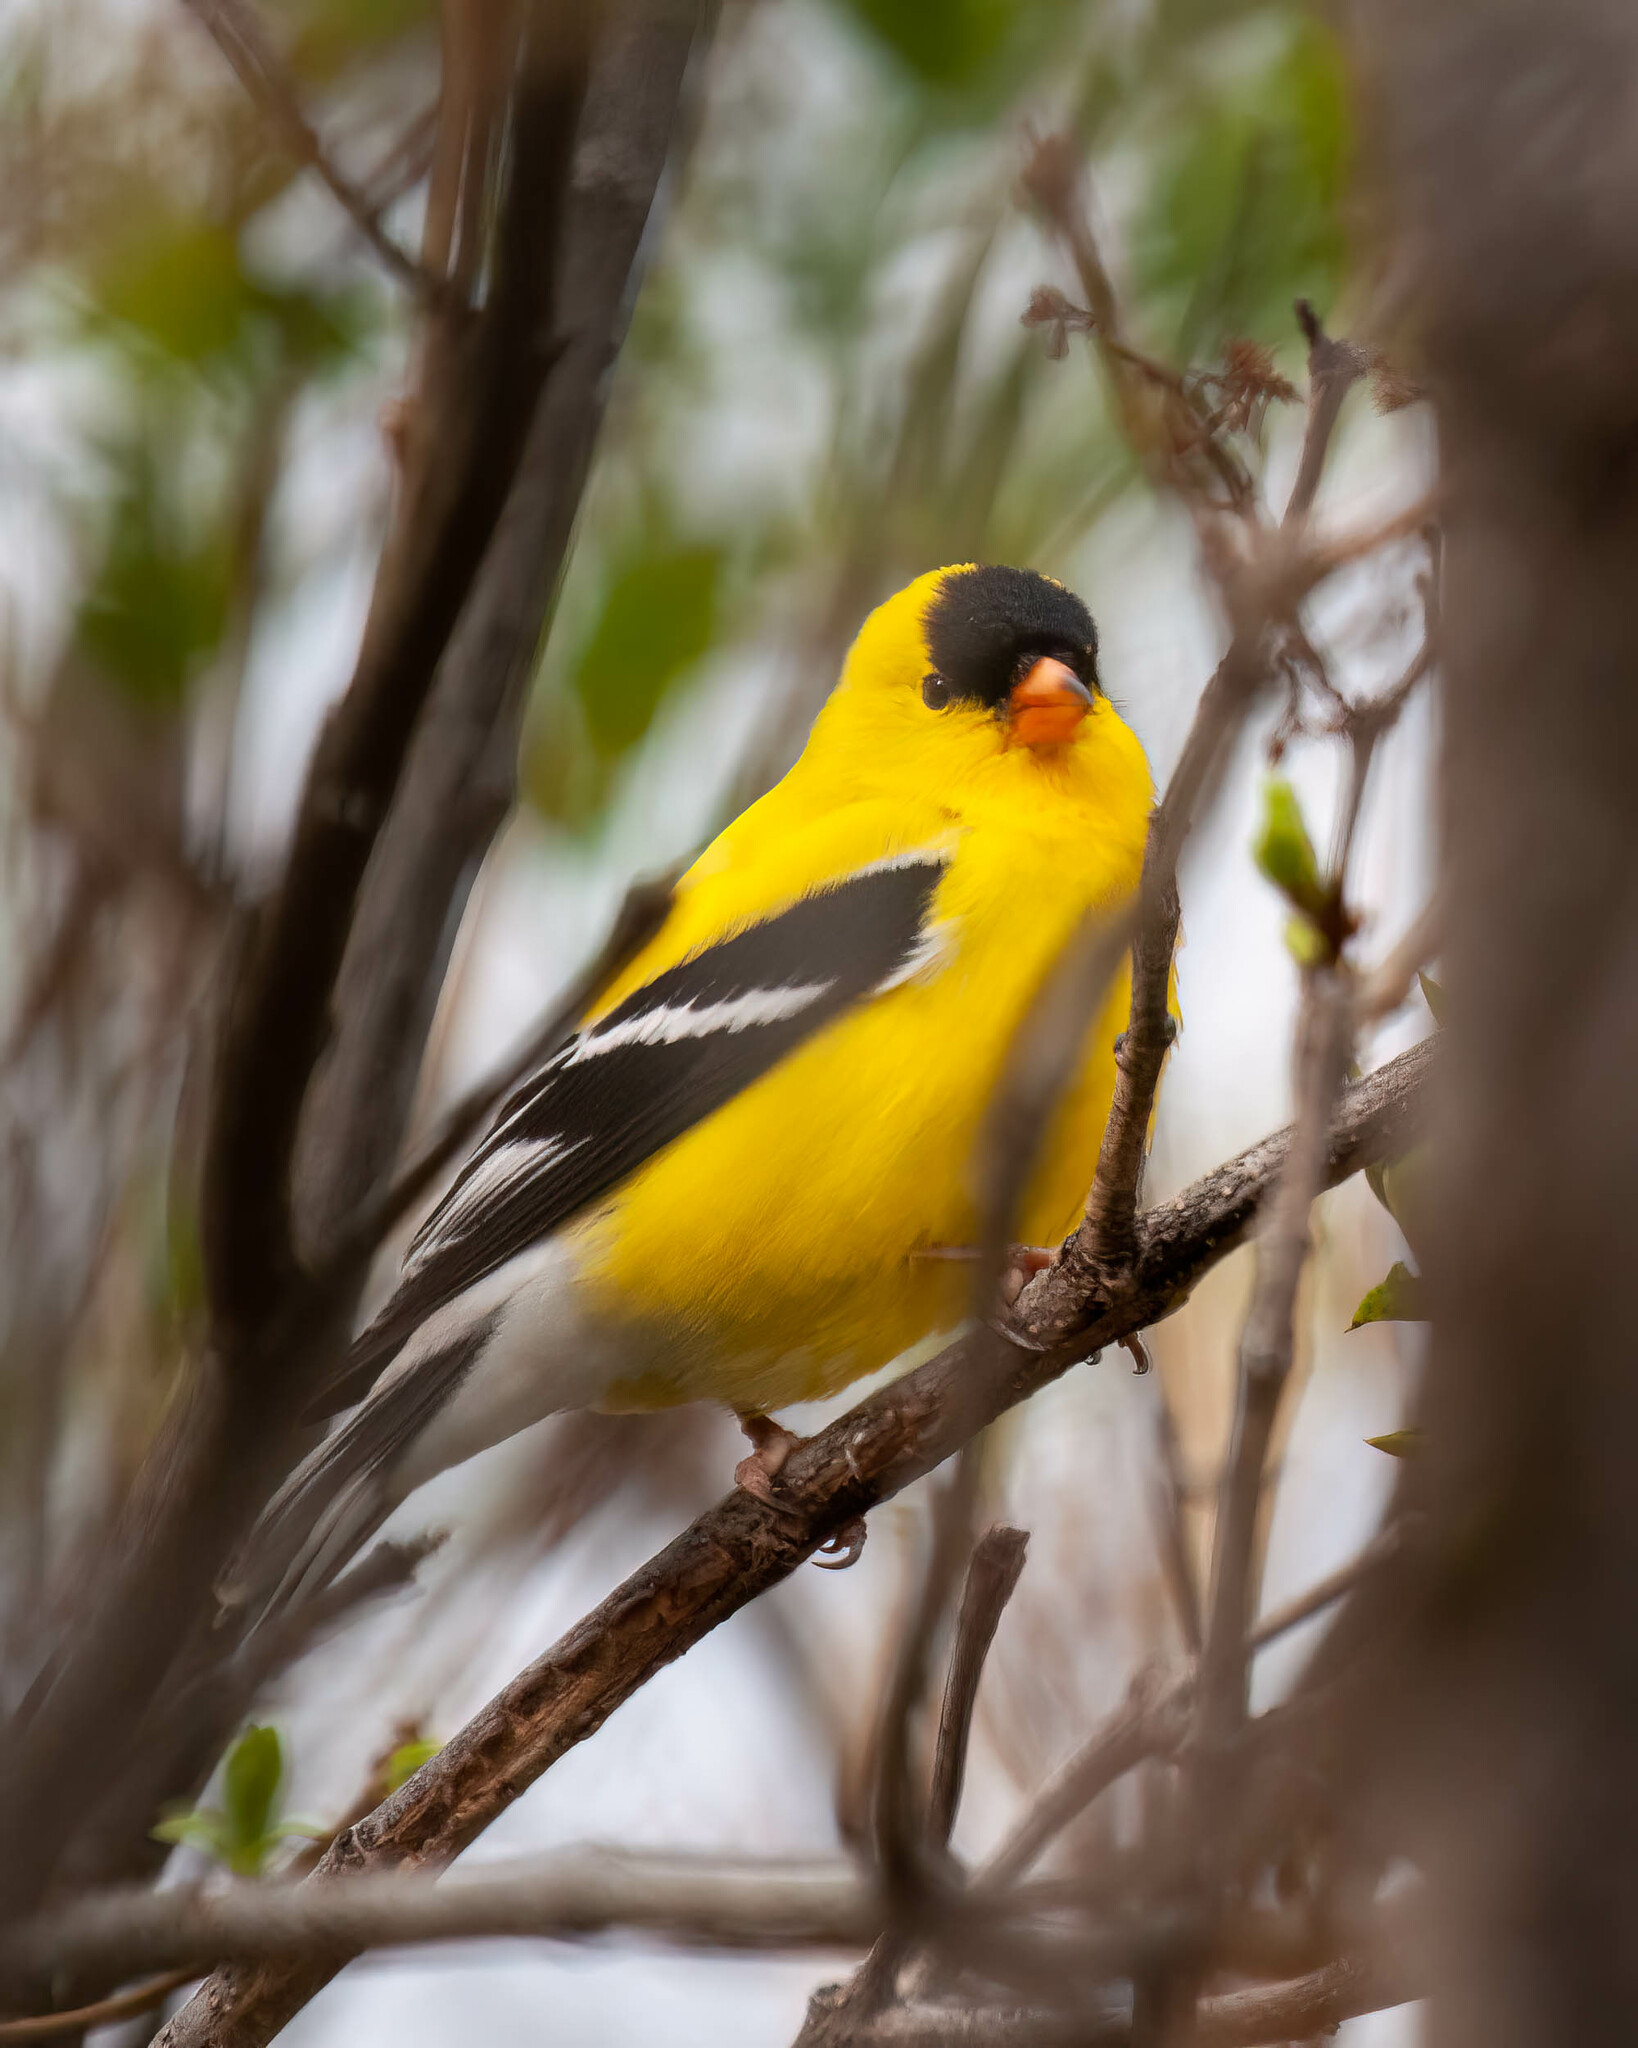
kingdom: Animalia
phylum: Chordata
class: Aves
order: Passeriformes
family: Fringillidae
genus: Spinus
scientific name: Spinus tristis
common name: American goldfinch
